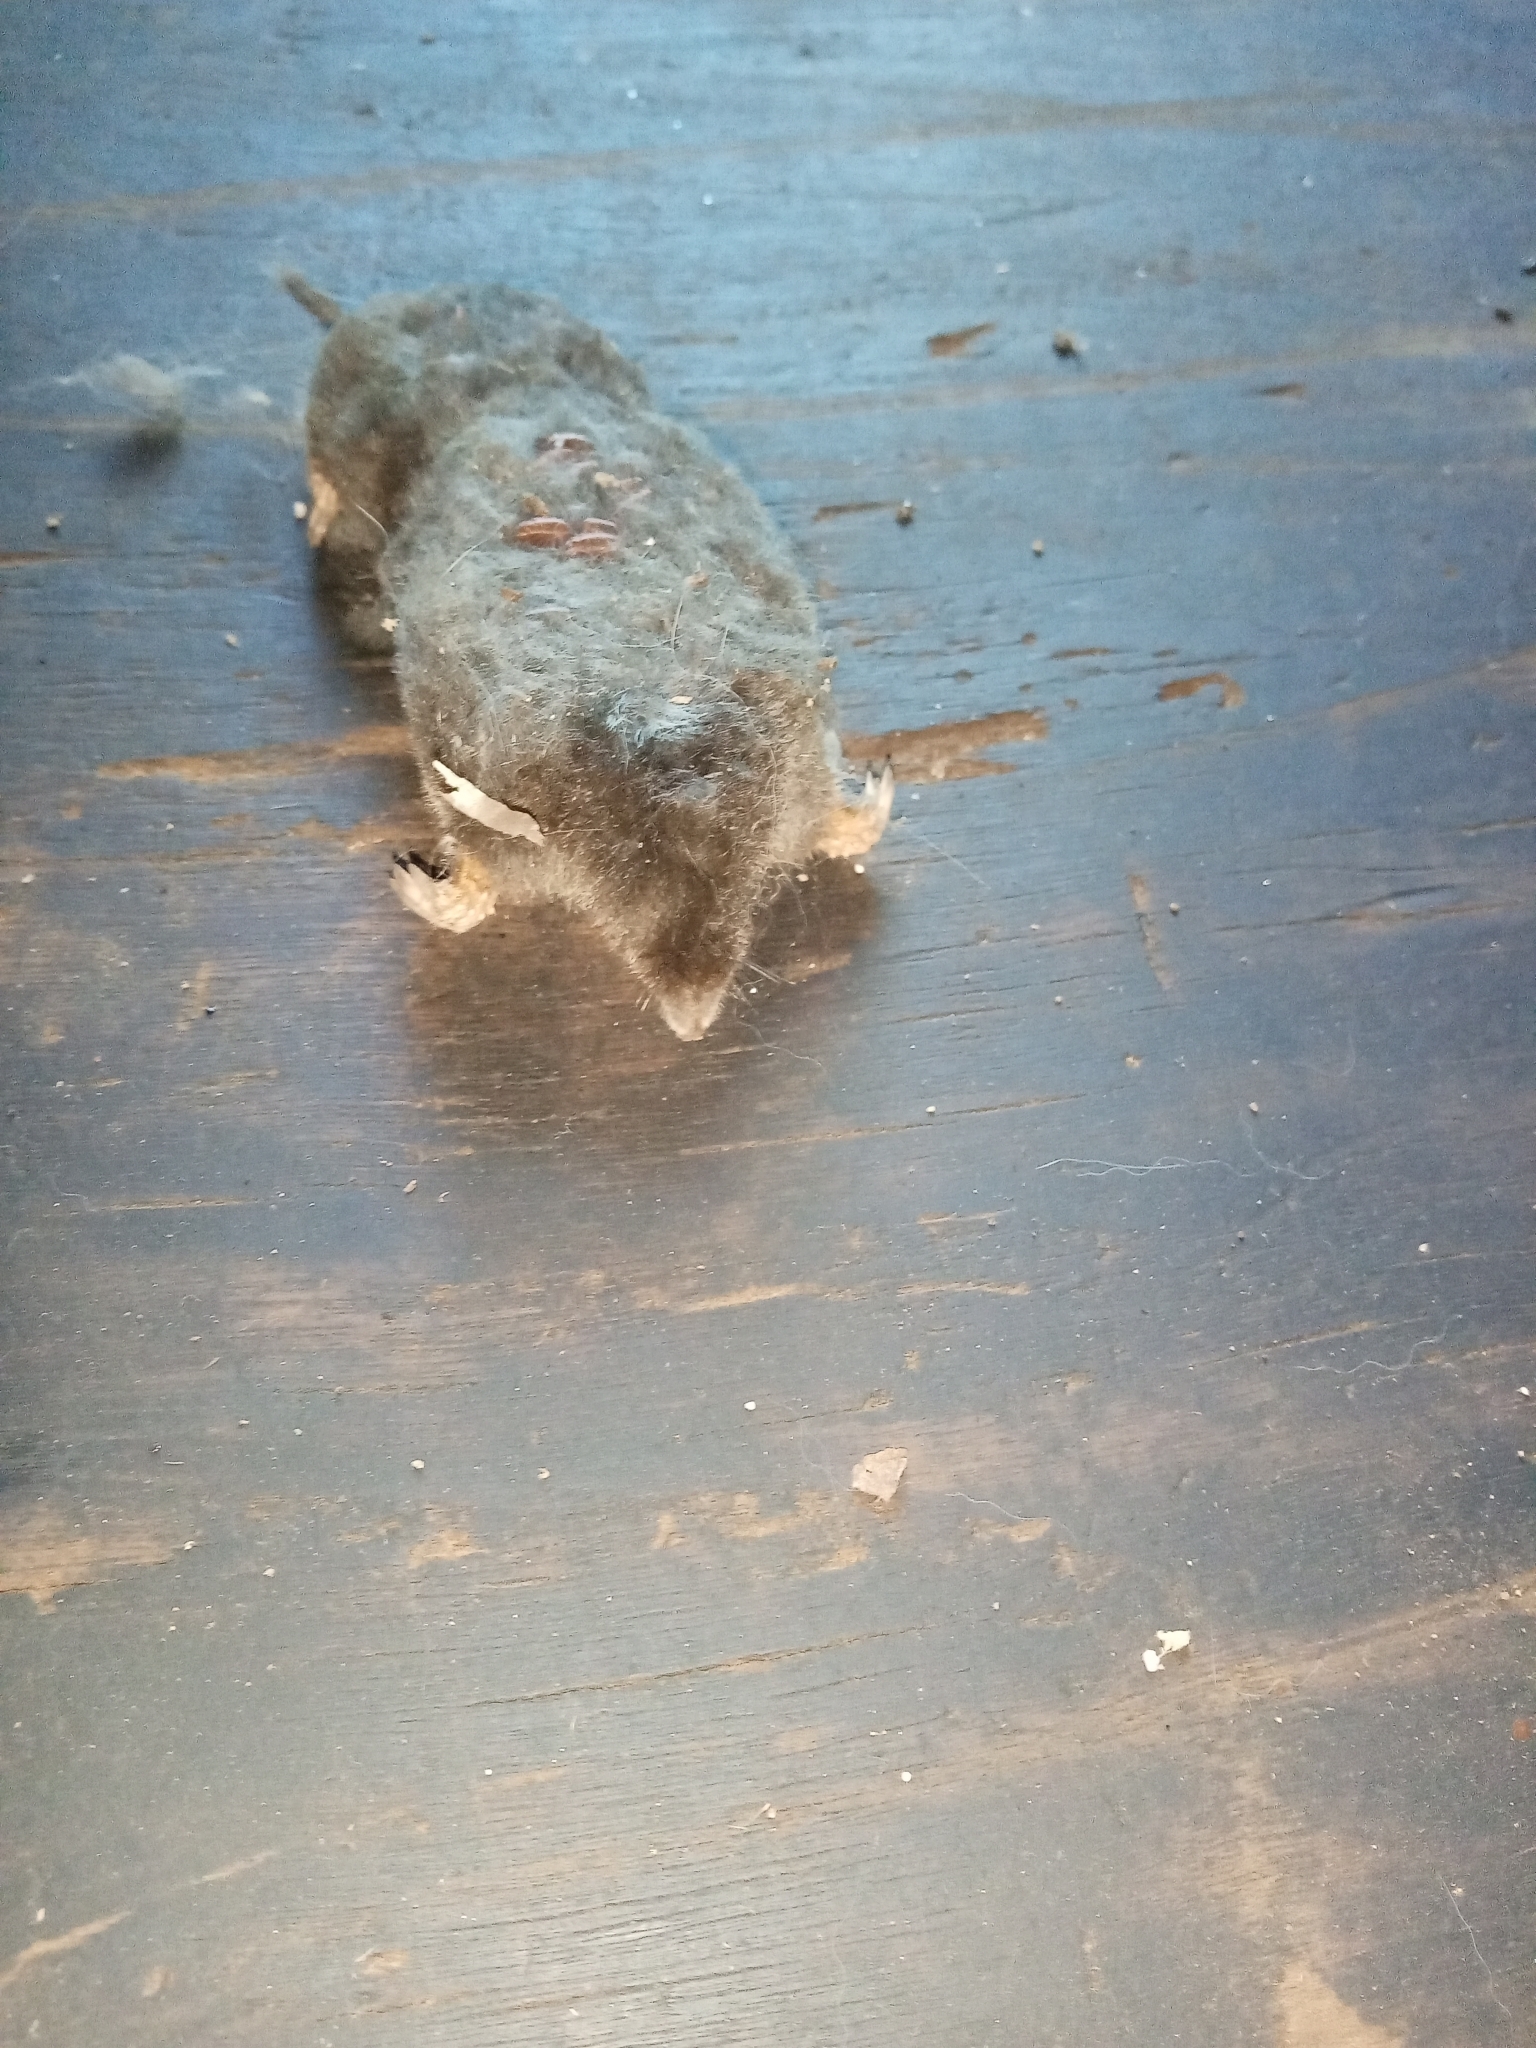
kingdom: Animalia
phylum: Chordata
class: Mammalia
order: Soricomorpha
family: Talpidae
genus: Talpa
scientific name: Talpa occidentalis
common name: Iberian mole
